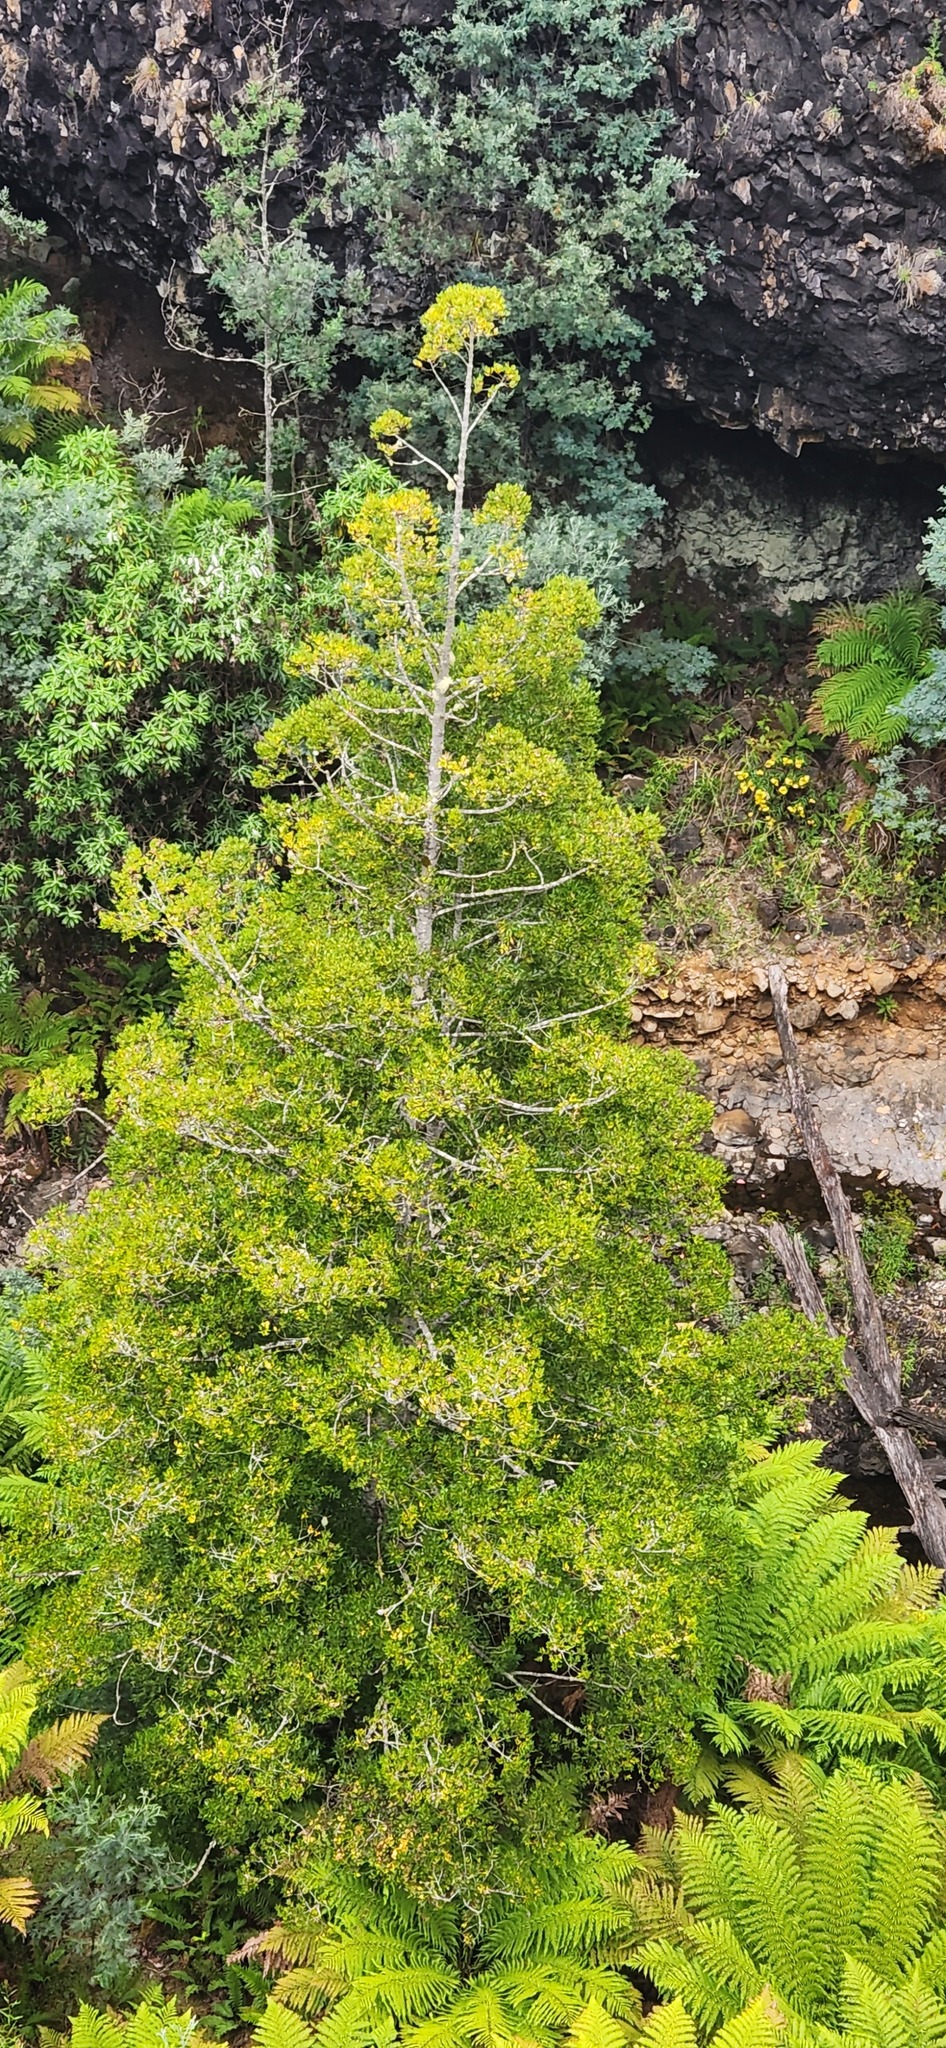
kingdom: Plantae
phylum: Tracheophyta
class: Pinopsida
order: Pinales
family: Phyllocladaceae
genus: Phyllocladus
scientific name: Phyllocladus aspleniifolius
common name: Celery-top pine
